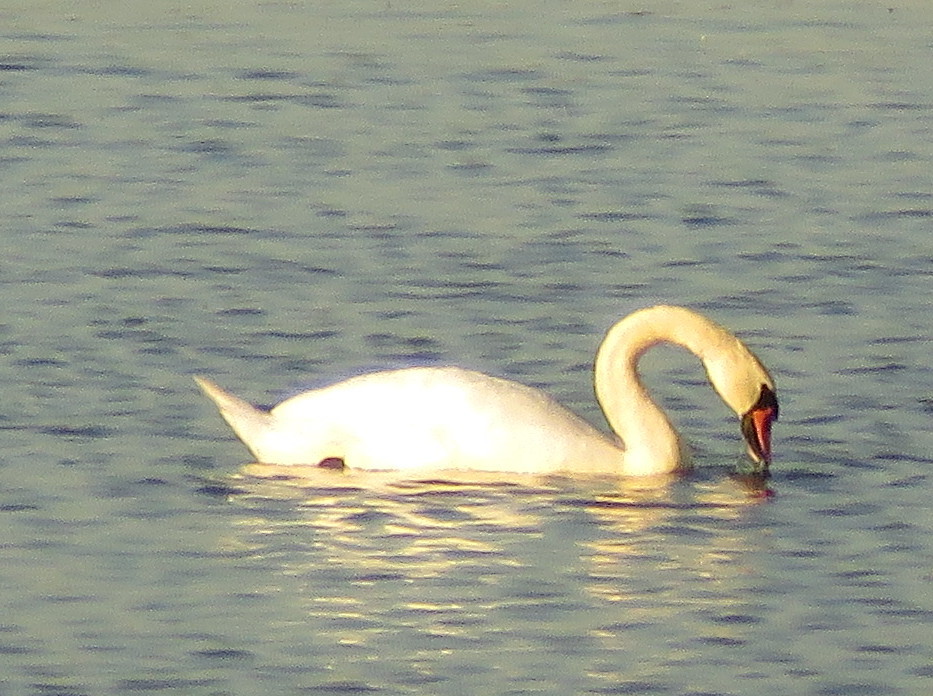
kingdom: Animalia
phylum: Chordata
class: Aves
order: Anseriformes
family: Anatidae
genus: Cygnus
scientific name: Cygnus olor
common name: Mute swan
